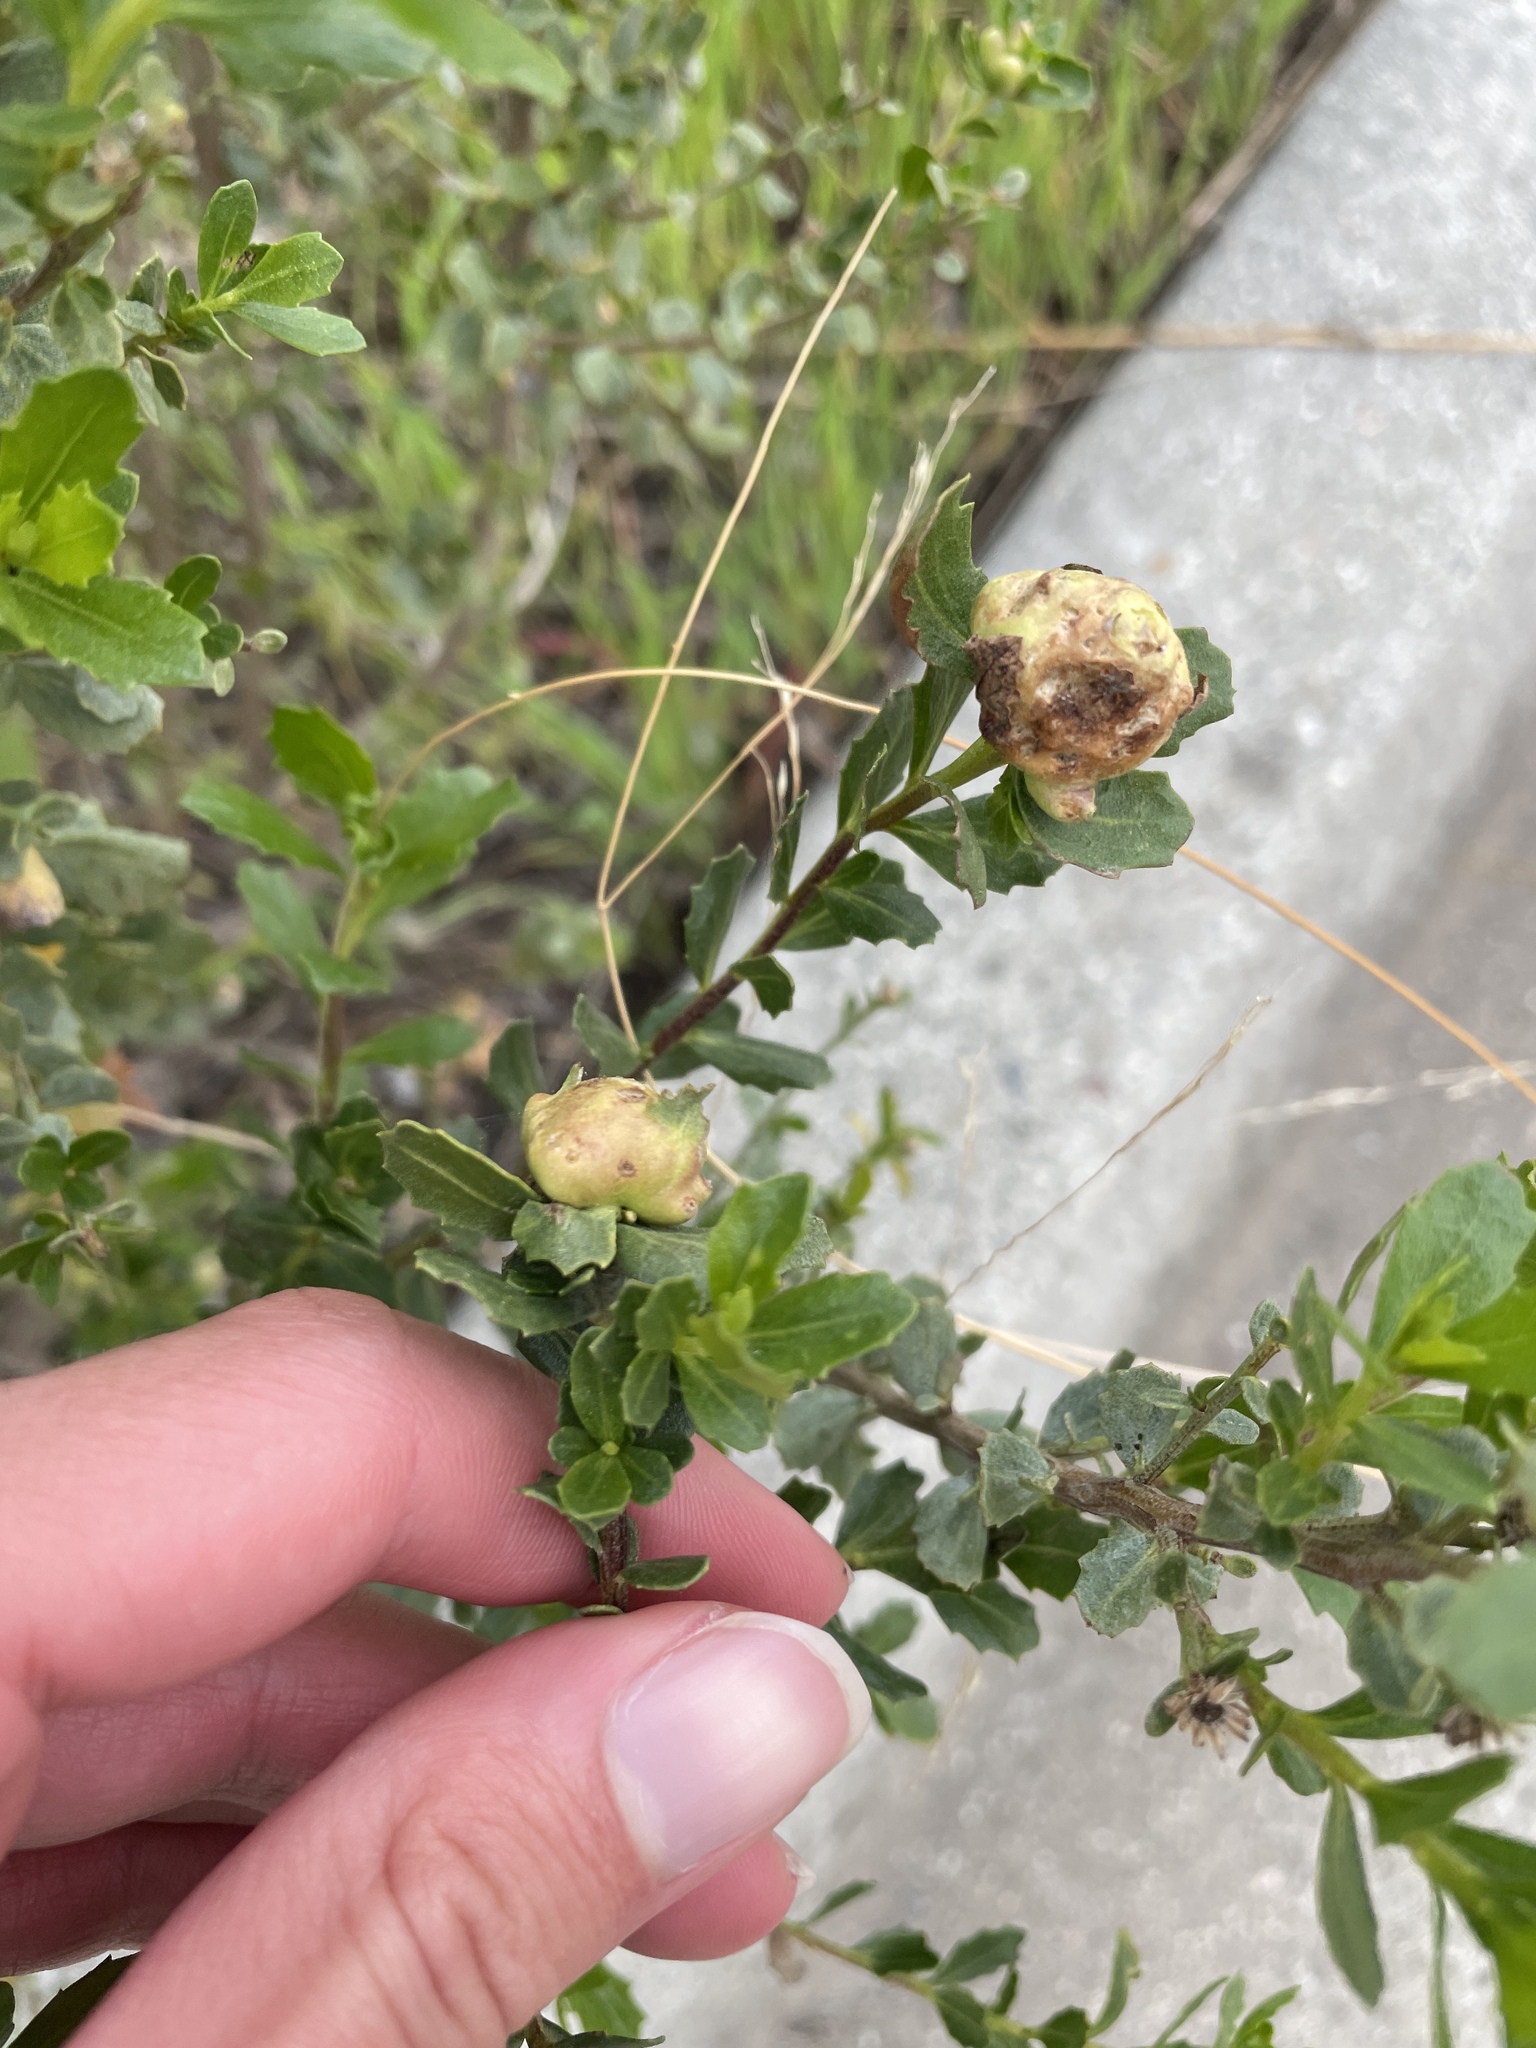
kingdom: Animalia
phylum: Arthropoda
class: Insecta
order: Diptera
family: Cecidomyiidae
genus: Rhopalomyia
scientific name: Rhopalomyia californica
